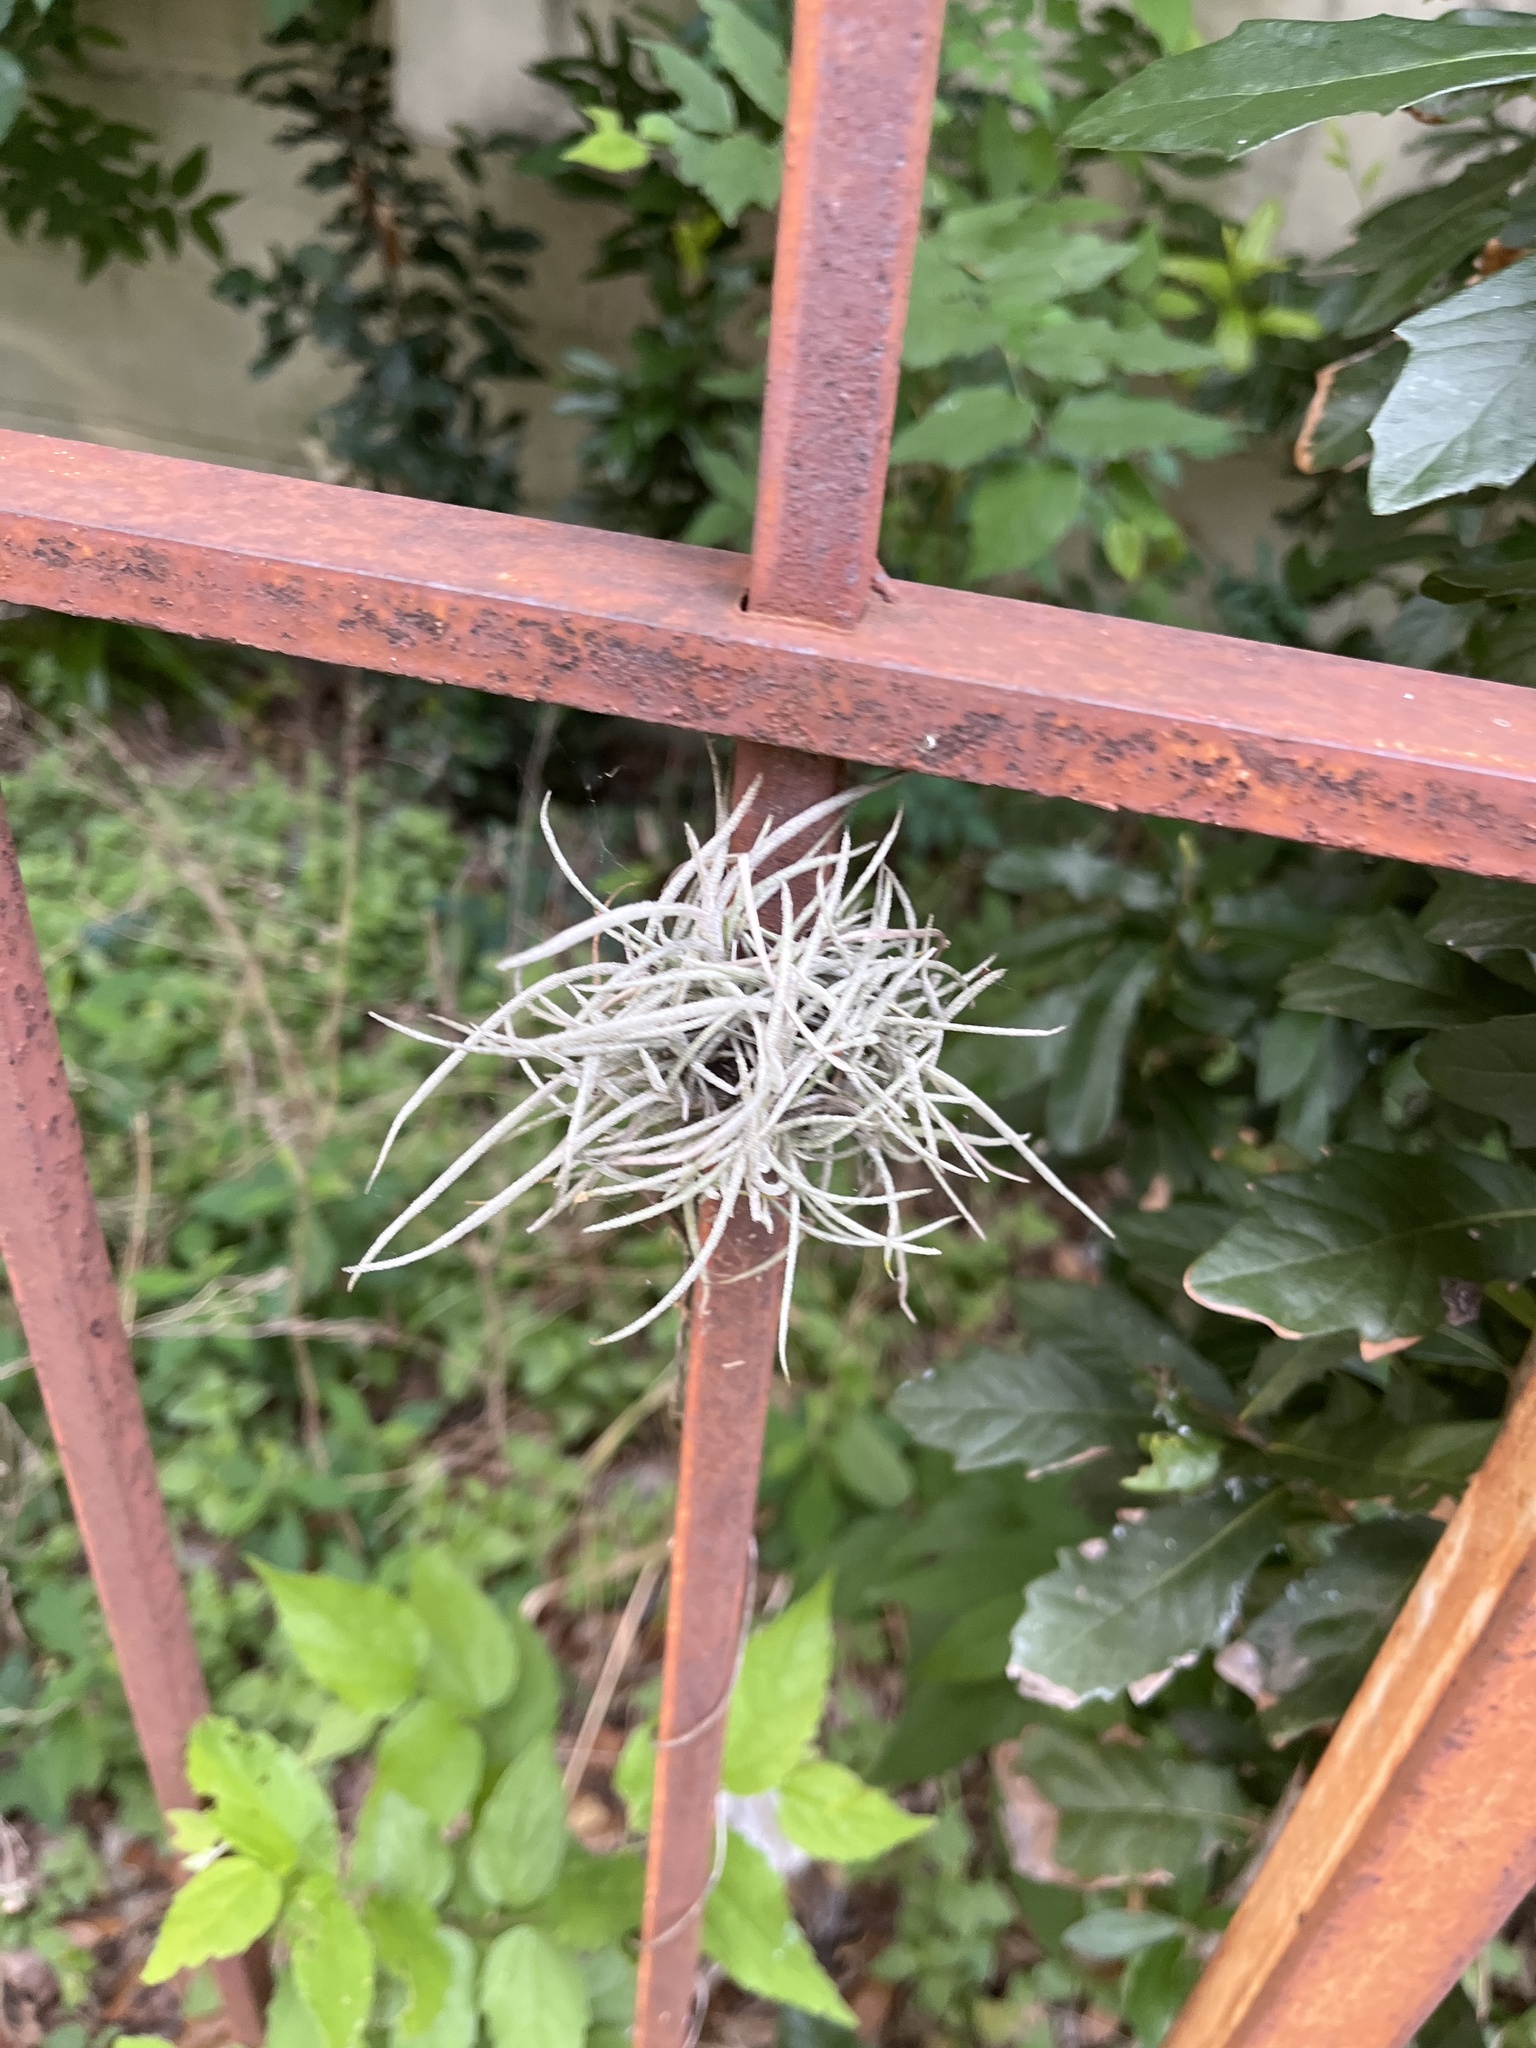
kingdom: Plantae
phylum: Tracheophyta
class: Liliopsida
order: Poales
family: Bromeliaceae
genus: Tillandsia
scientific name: Tillandsia recurvata
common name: Small ballmoss
